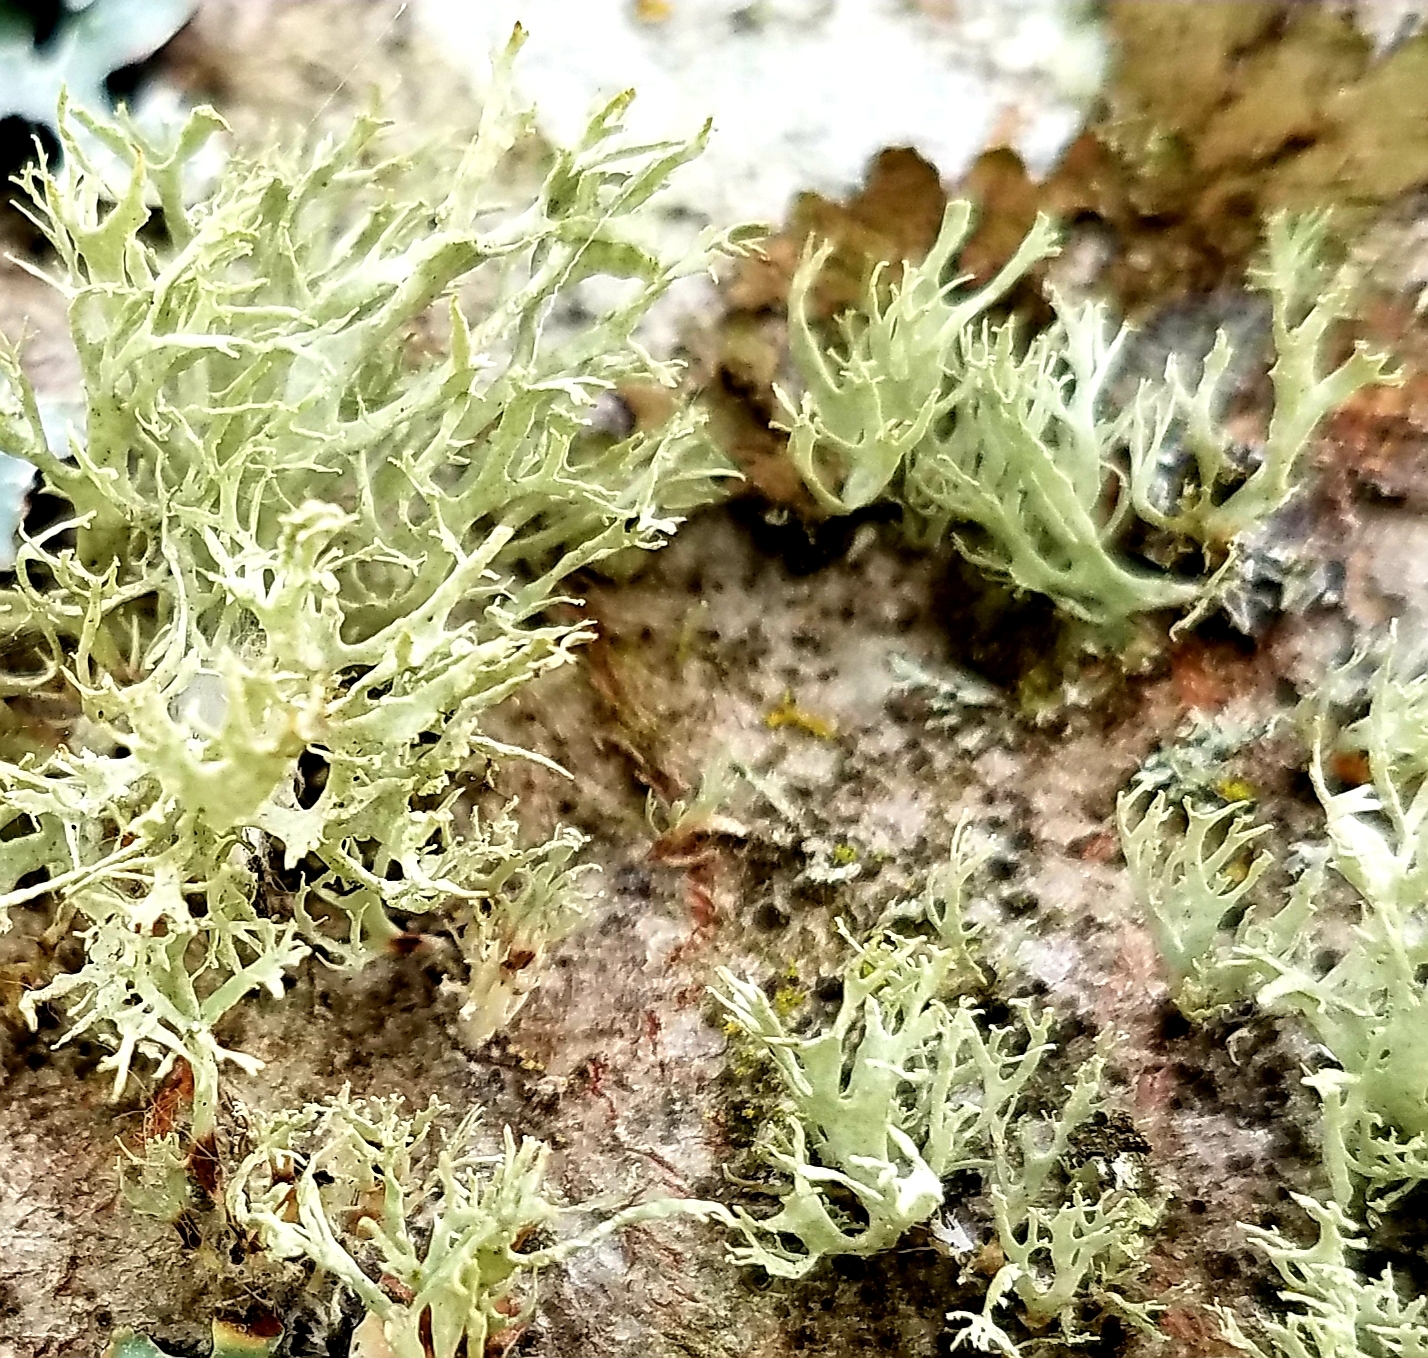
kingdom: Fungi
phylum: Ascomycota
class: Lecanoromycetes
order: Lecanorales
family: Parmeliaceae
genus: Evernia
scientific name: Evernia prunastri
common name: Oak moss
